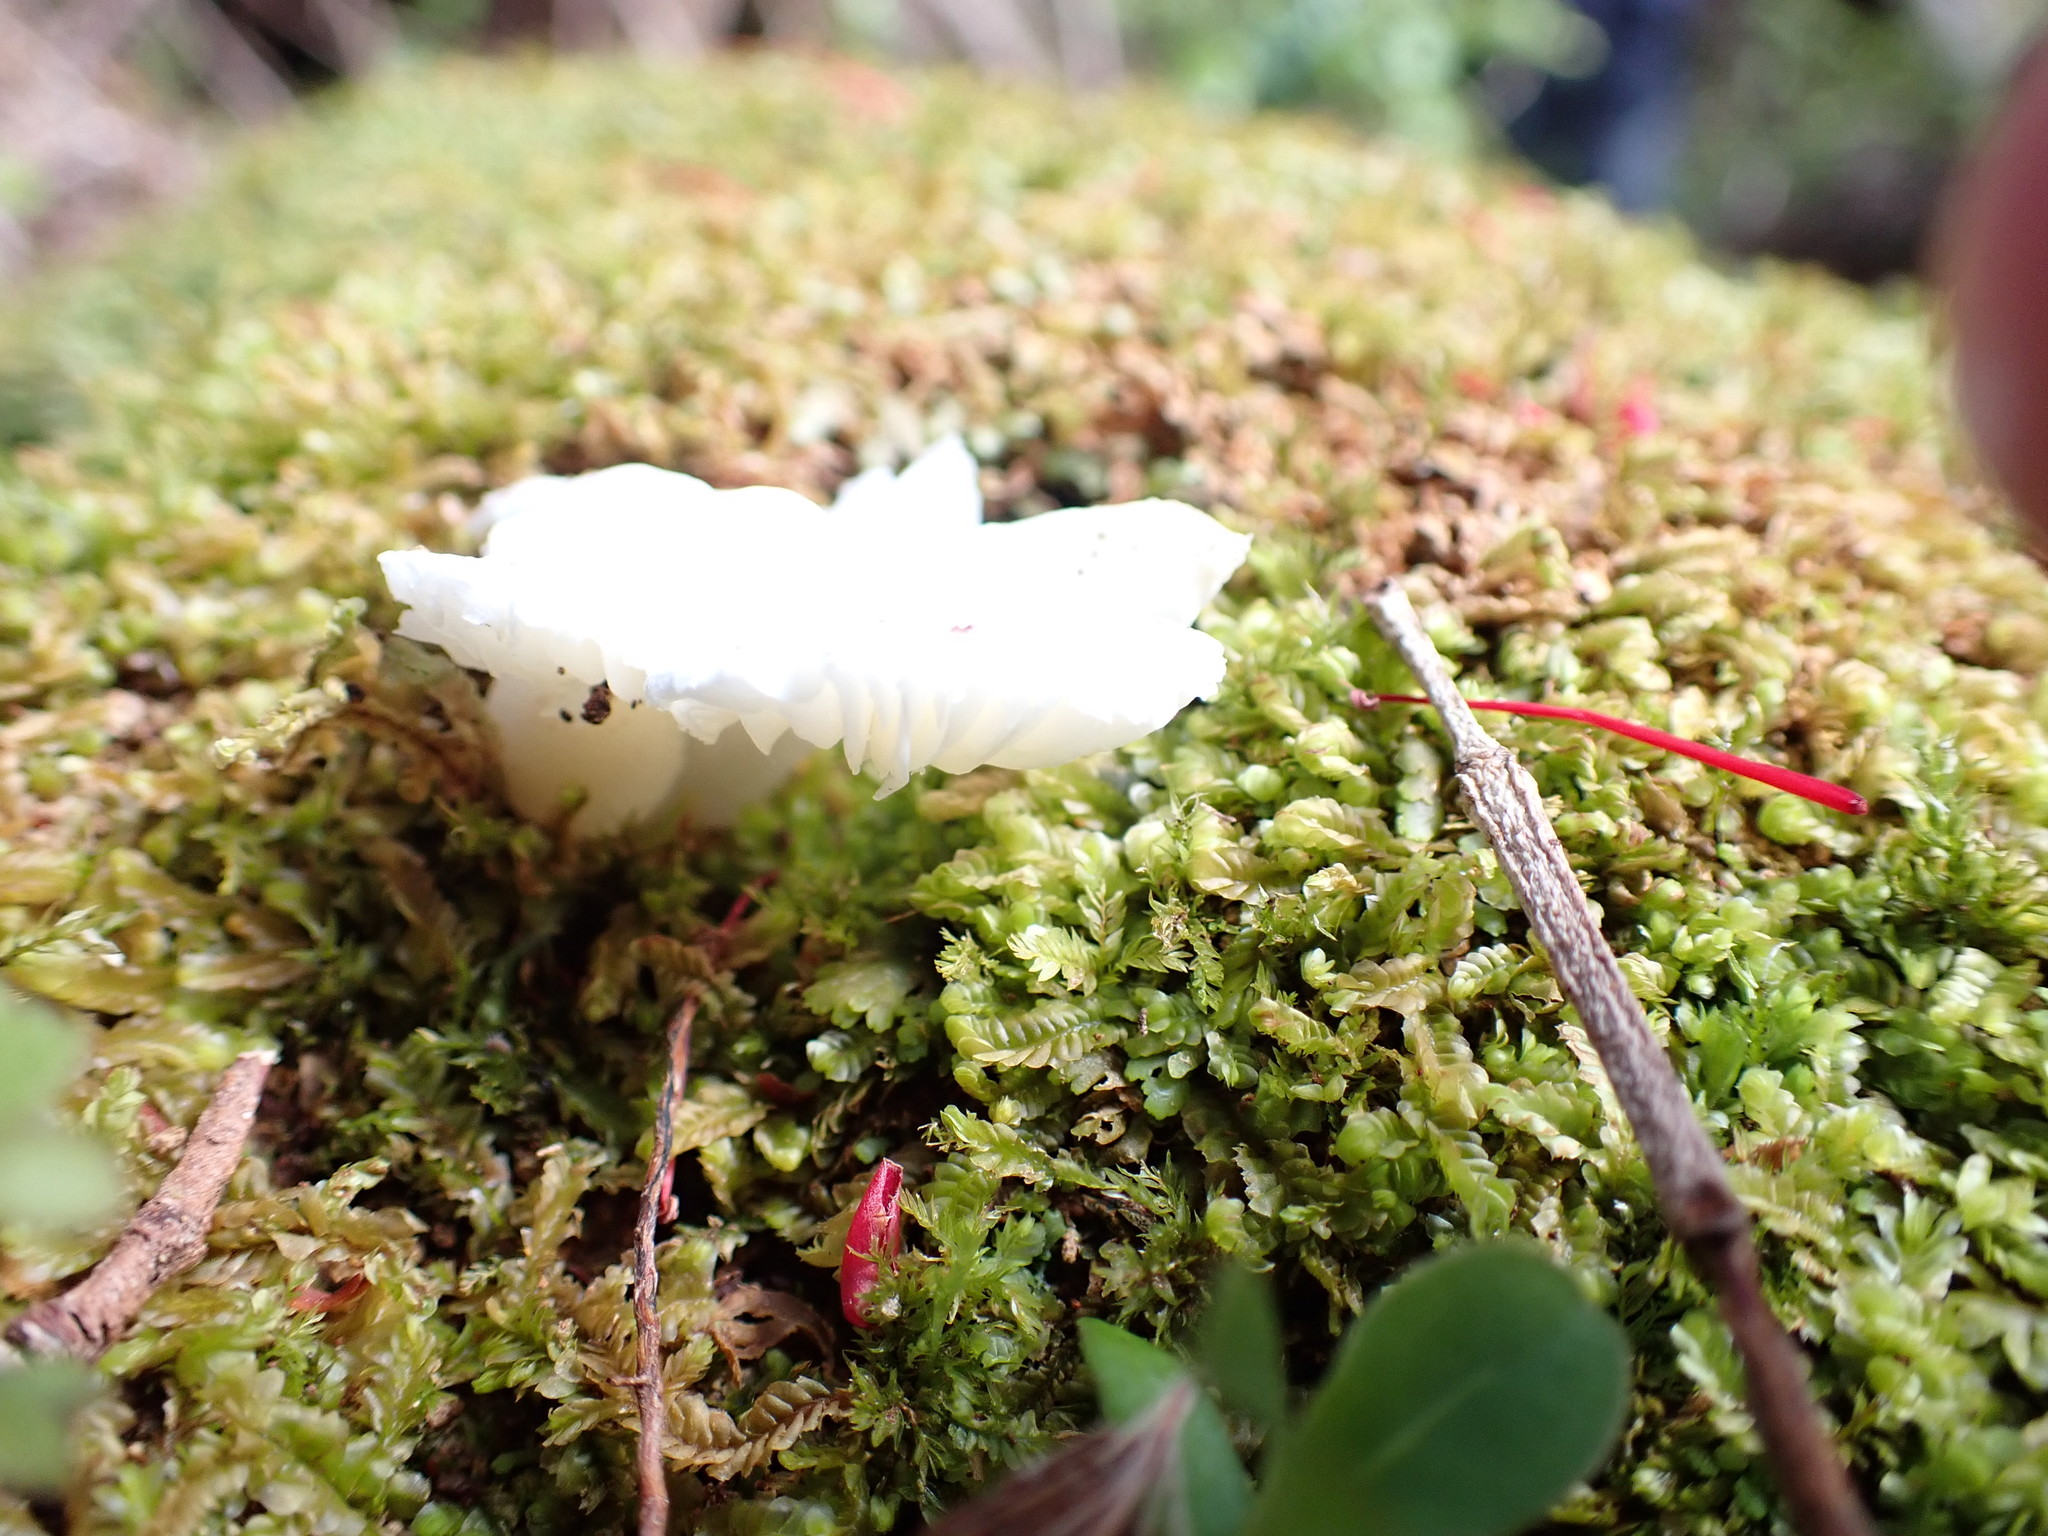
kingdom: Fungi
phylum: Basidiomycota
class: Agaricomycetes
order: Agaricales
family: Hygrophoraceae
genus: Humidicutis
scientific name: Humidicutis mavis
